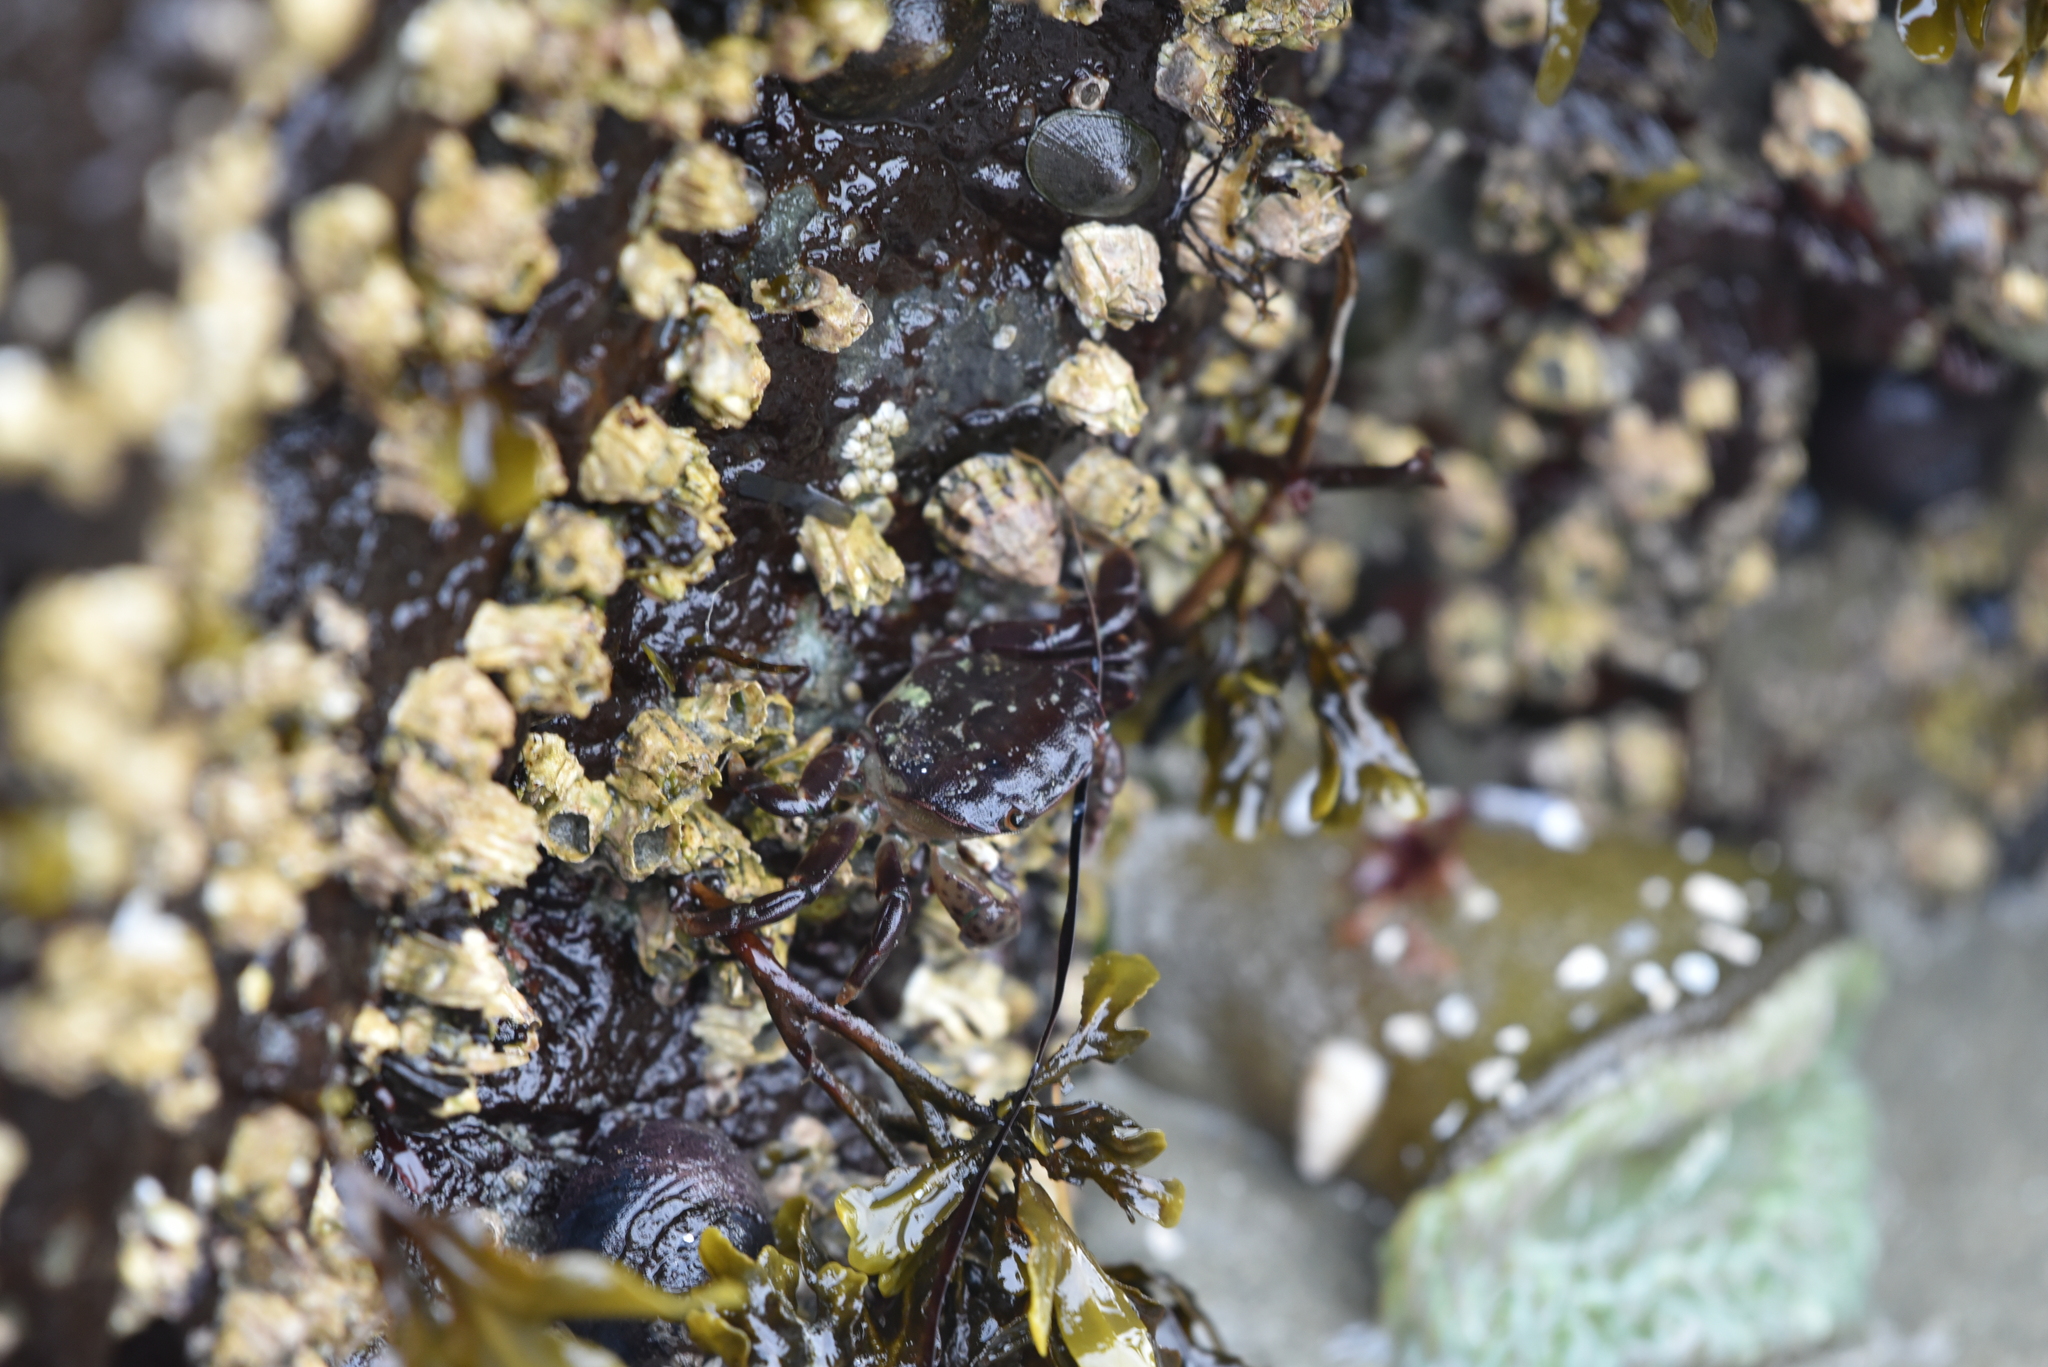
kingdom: Animalia
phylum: Arthropoda
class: Malacostraca
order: Decapoda
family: Varunidae
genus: Hemigrapsus
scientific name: Hemigrapsus nudus
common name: Purple shore crab
